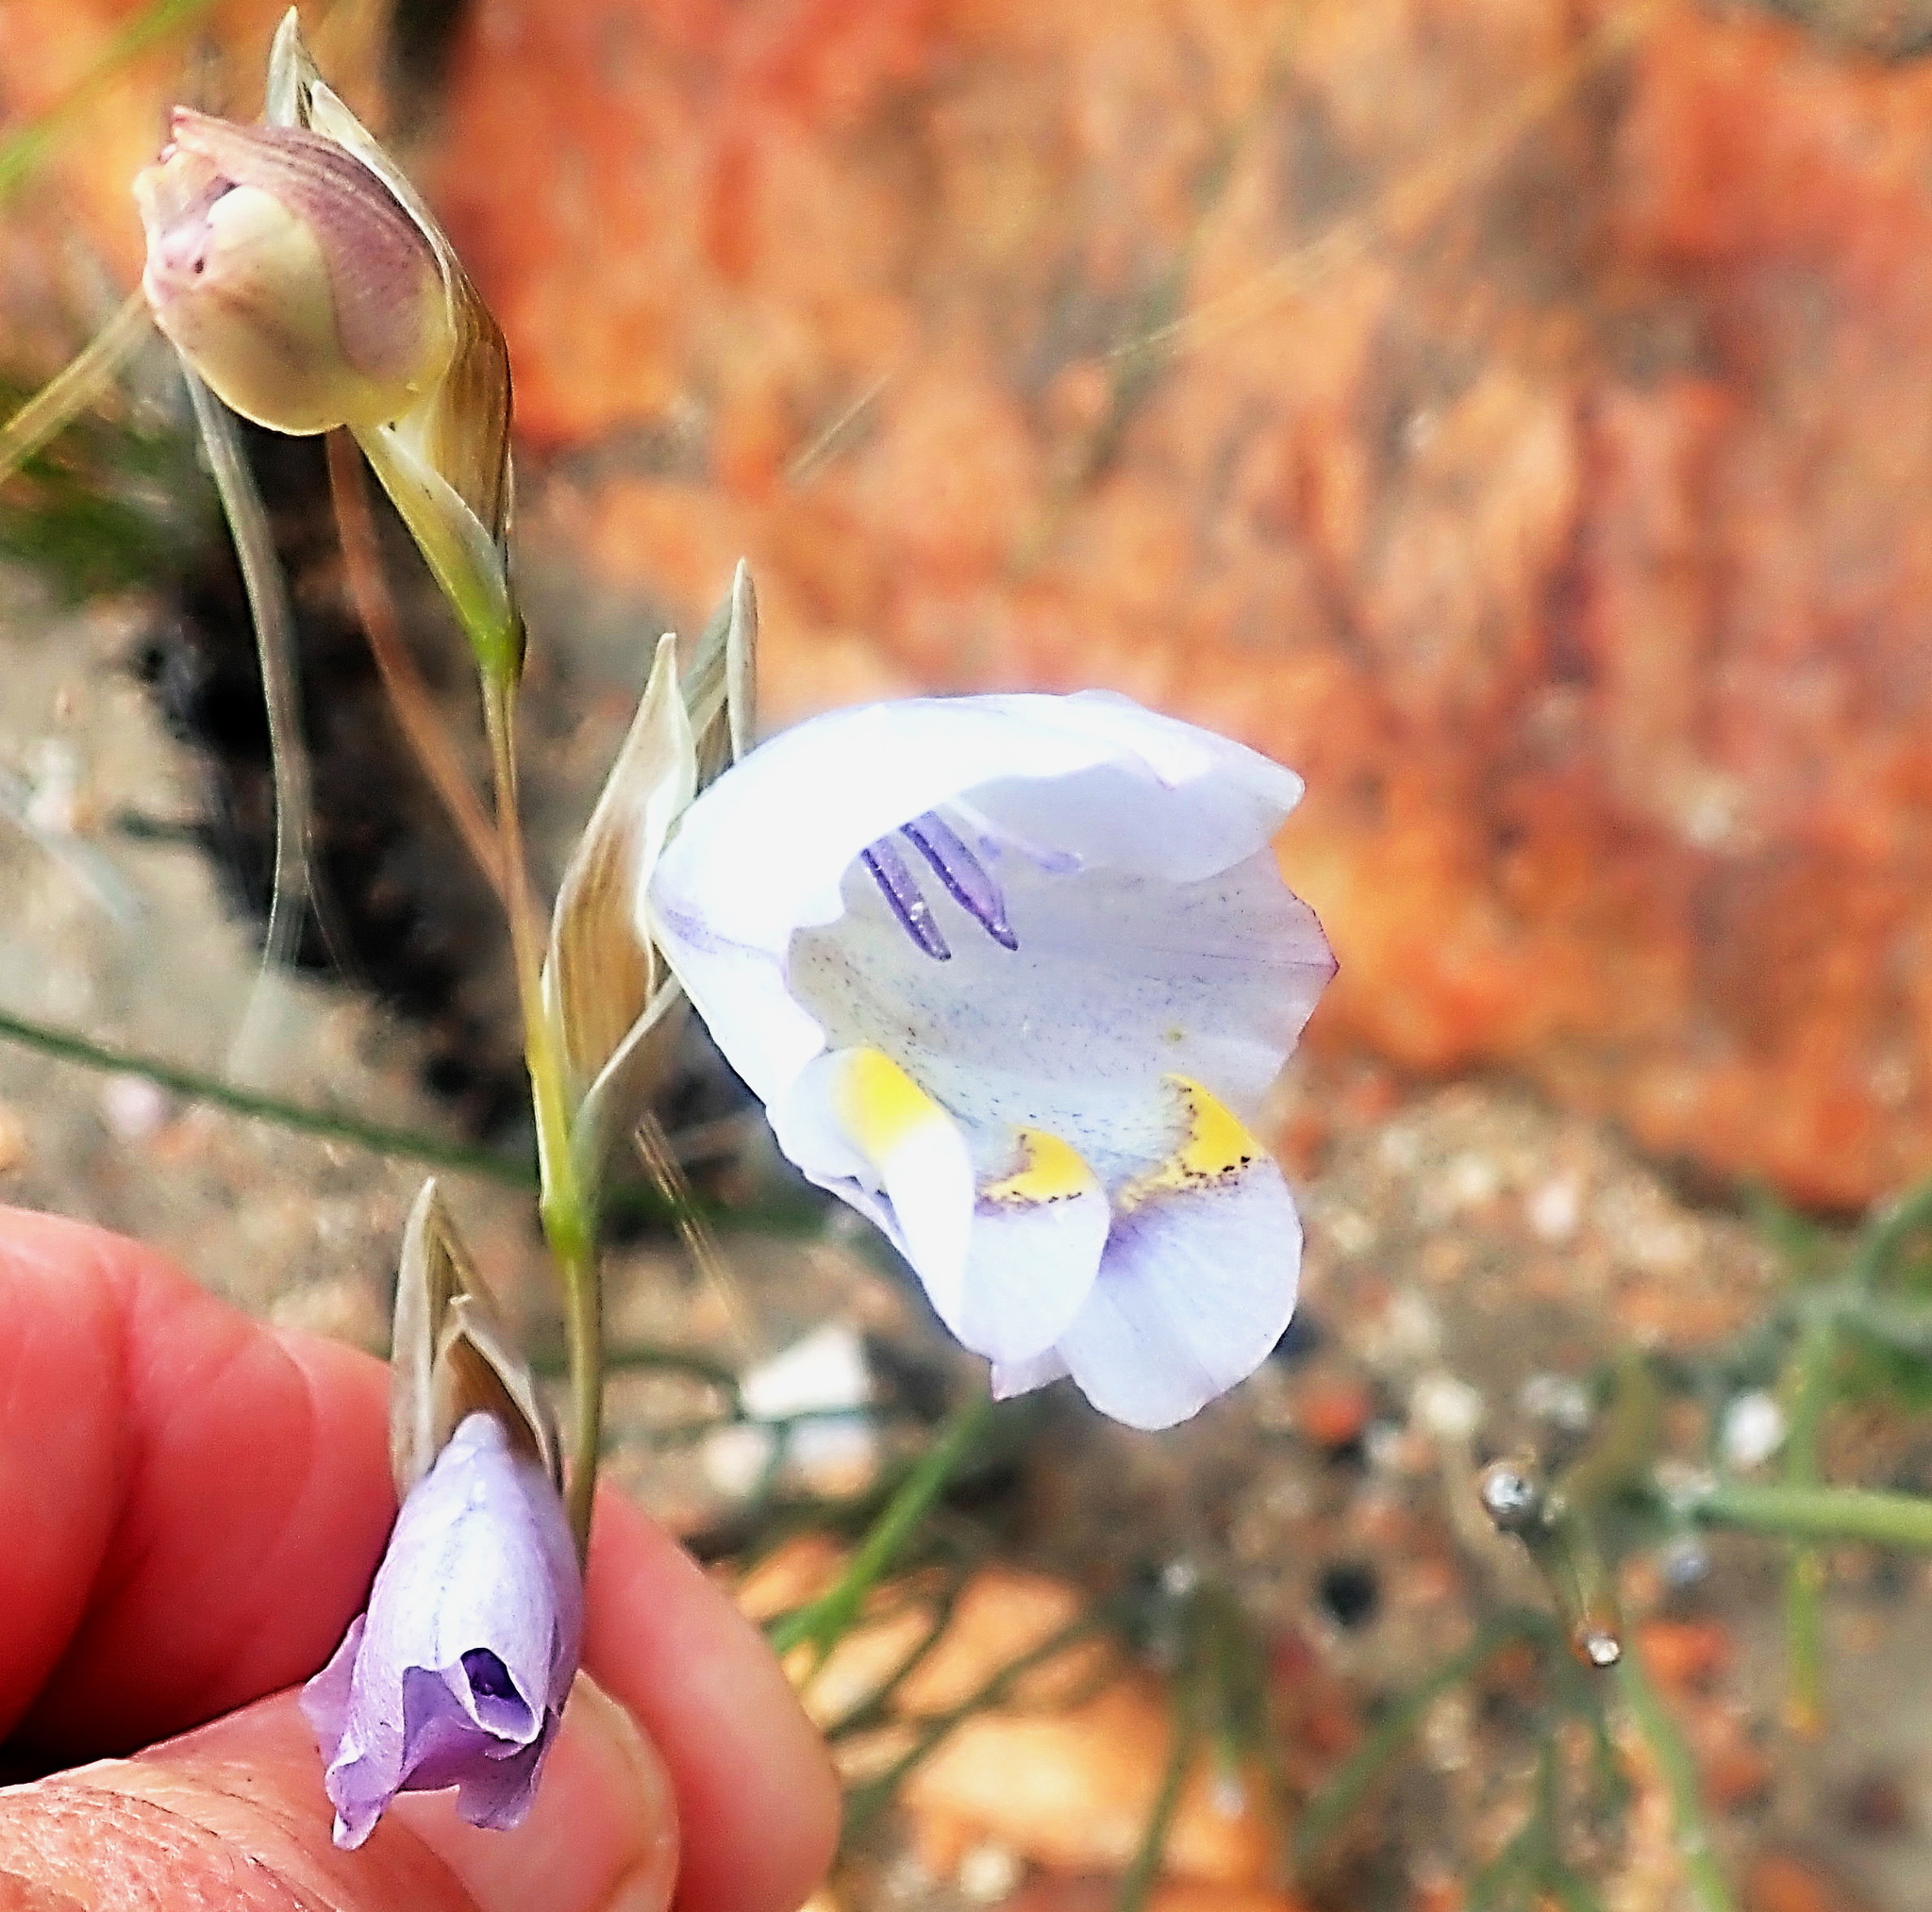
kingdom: Plantae
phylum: Tracheophyta
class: Liliopsida
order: Asparagales
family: Iridaceae
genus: Gladiolus
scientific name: Gladiolus patersoniae
